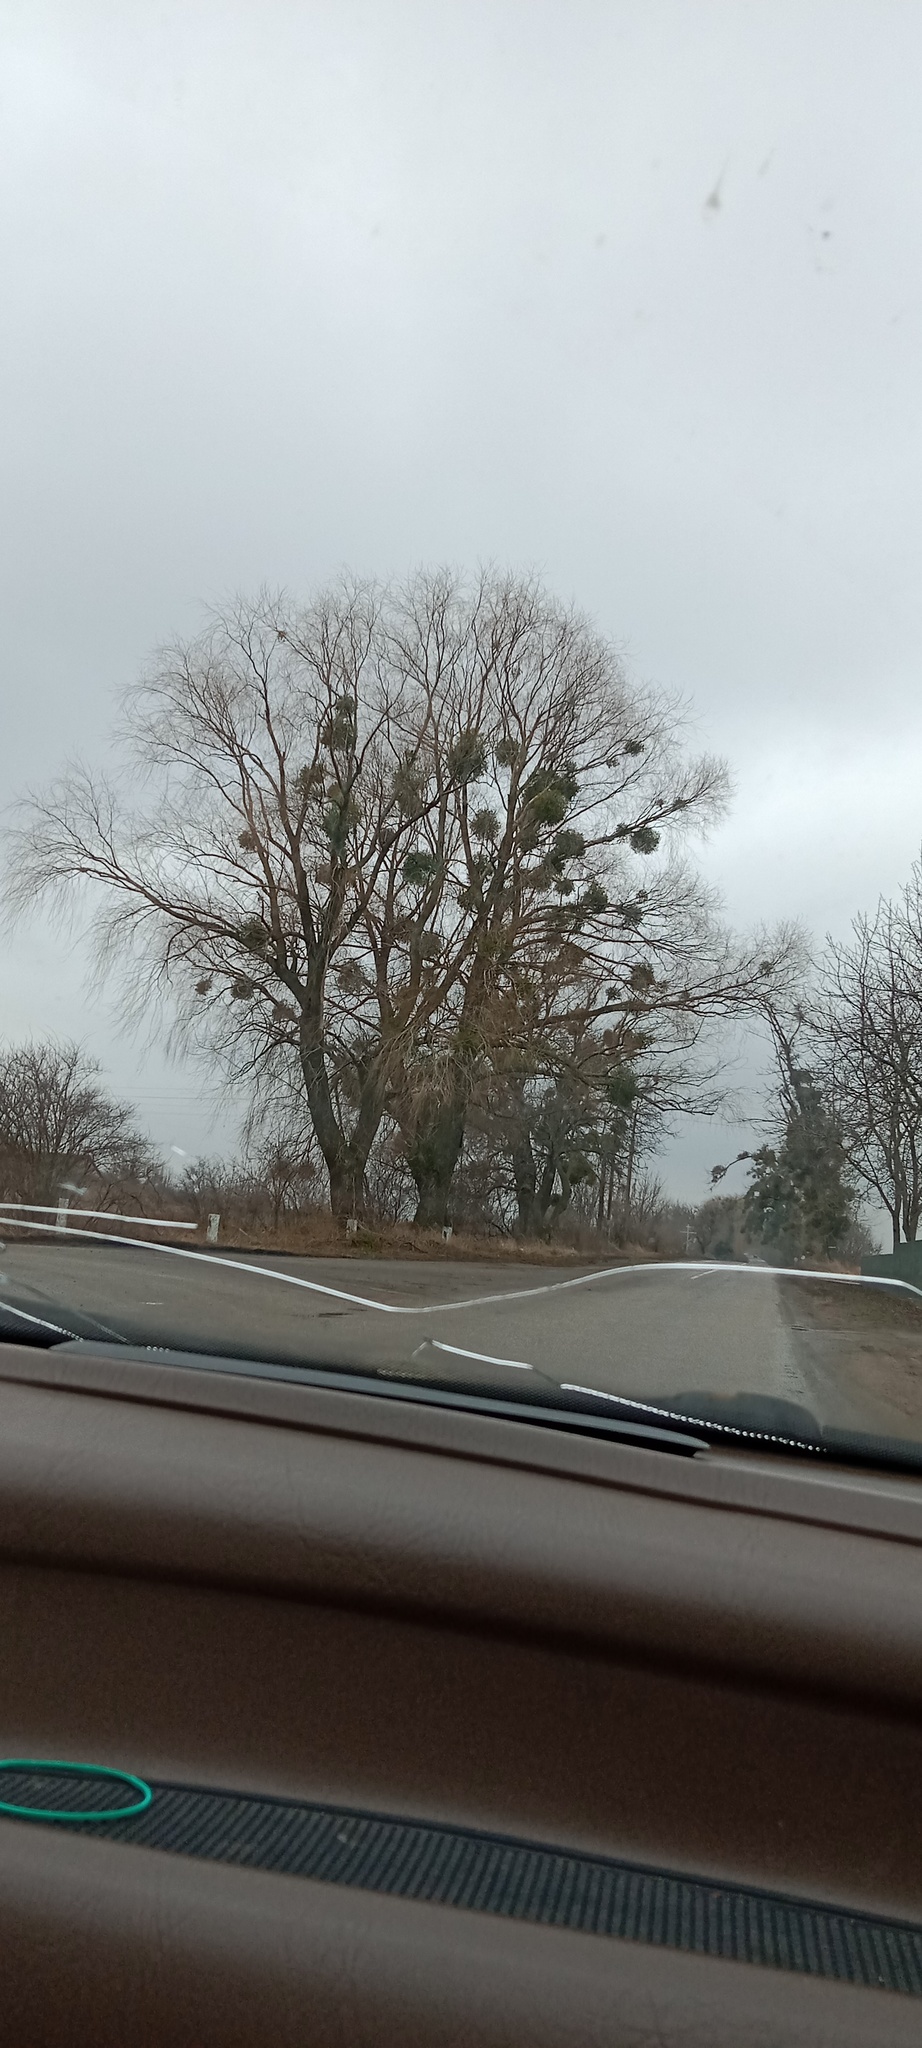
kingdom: Plantae
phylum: Tracheophyta
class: Magnoliopsida
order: Santalales
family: Viscaceae
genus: Viscum
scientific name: Viscum album
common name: Mistletoe
